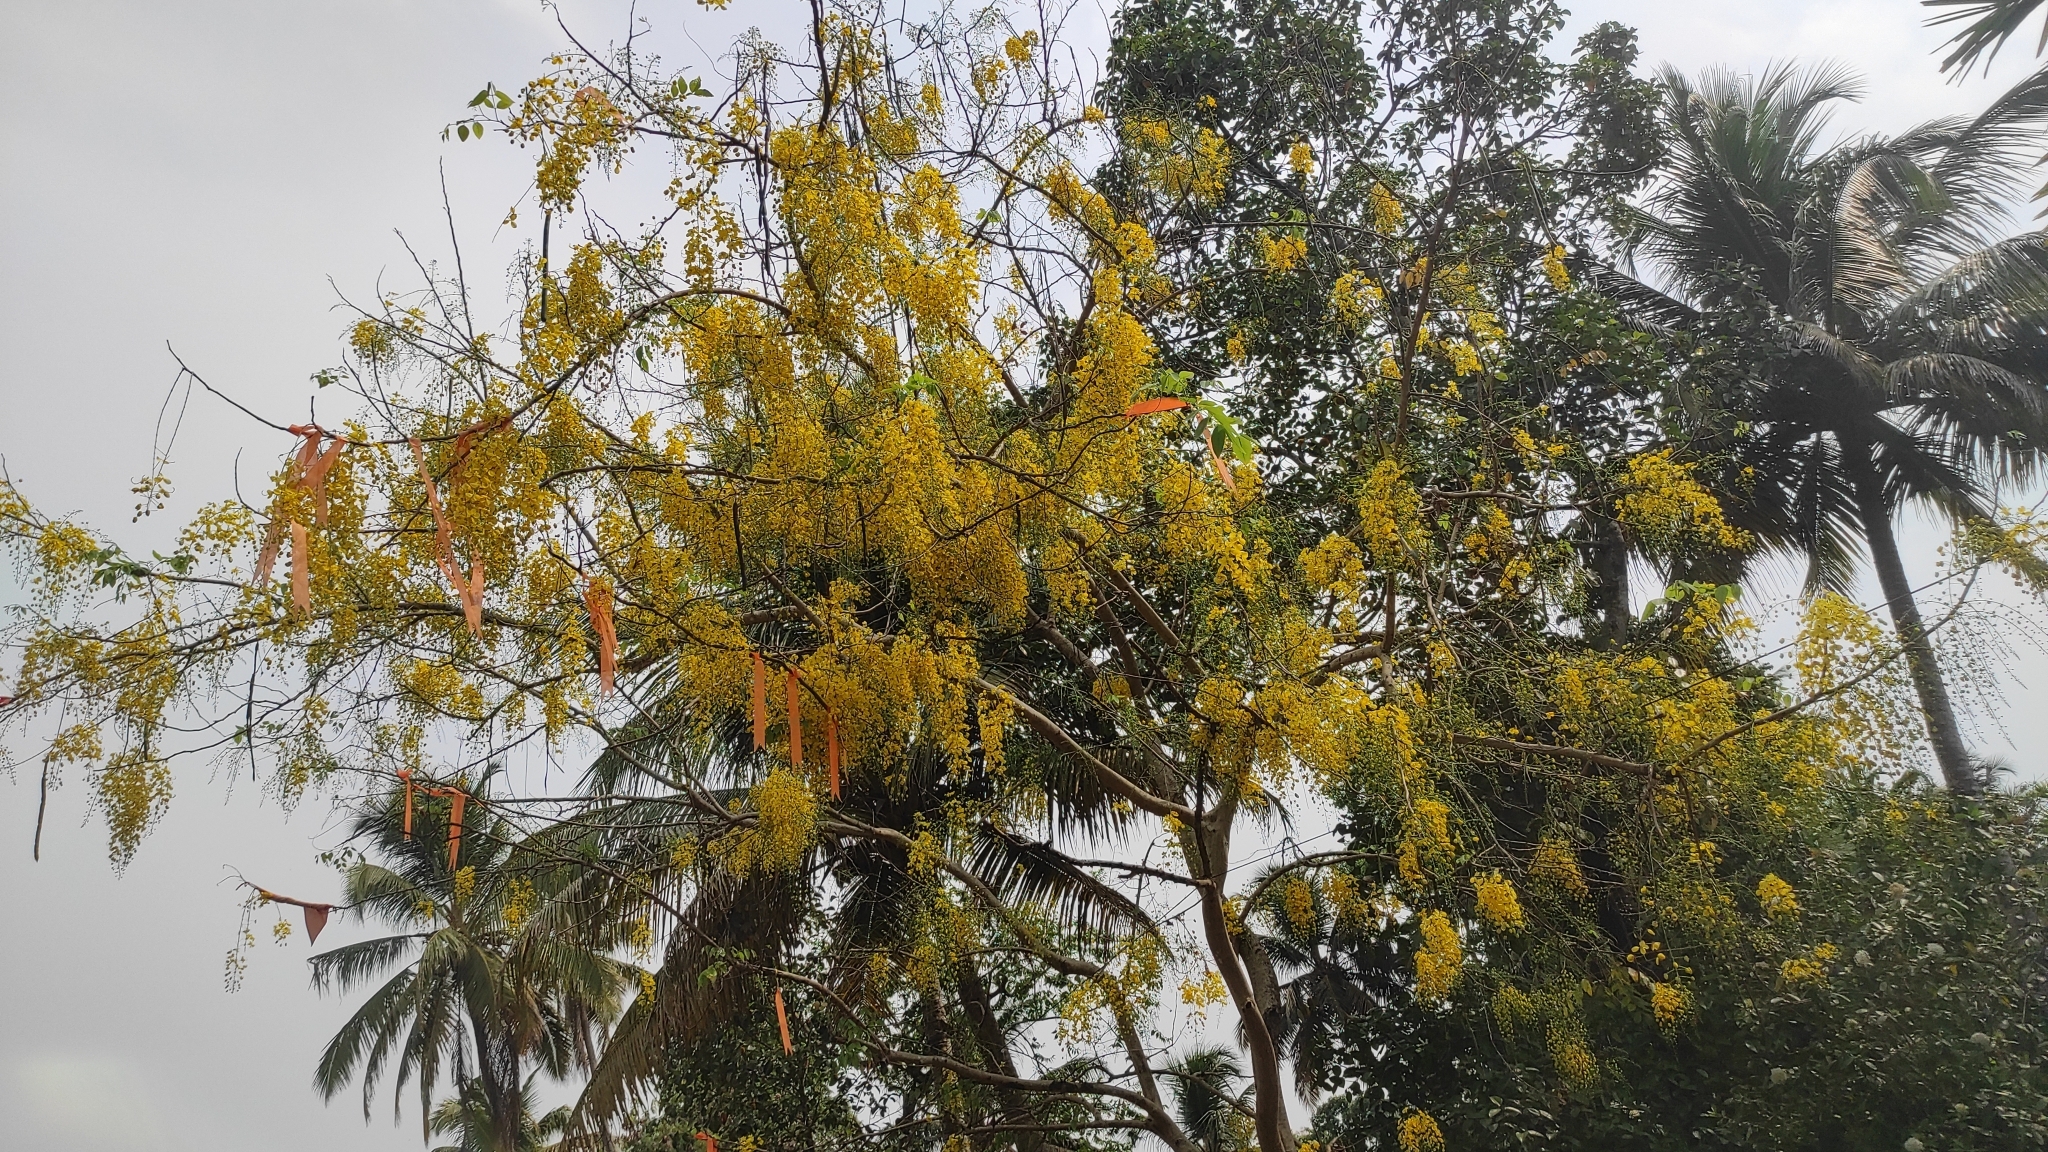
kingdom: Plantae
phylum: Tracheophyta
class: Magnoliopsida
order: Fabales
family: Fabaceae
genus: Cassia
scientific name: Cassia fistula
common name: Golden shower
